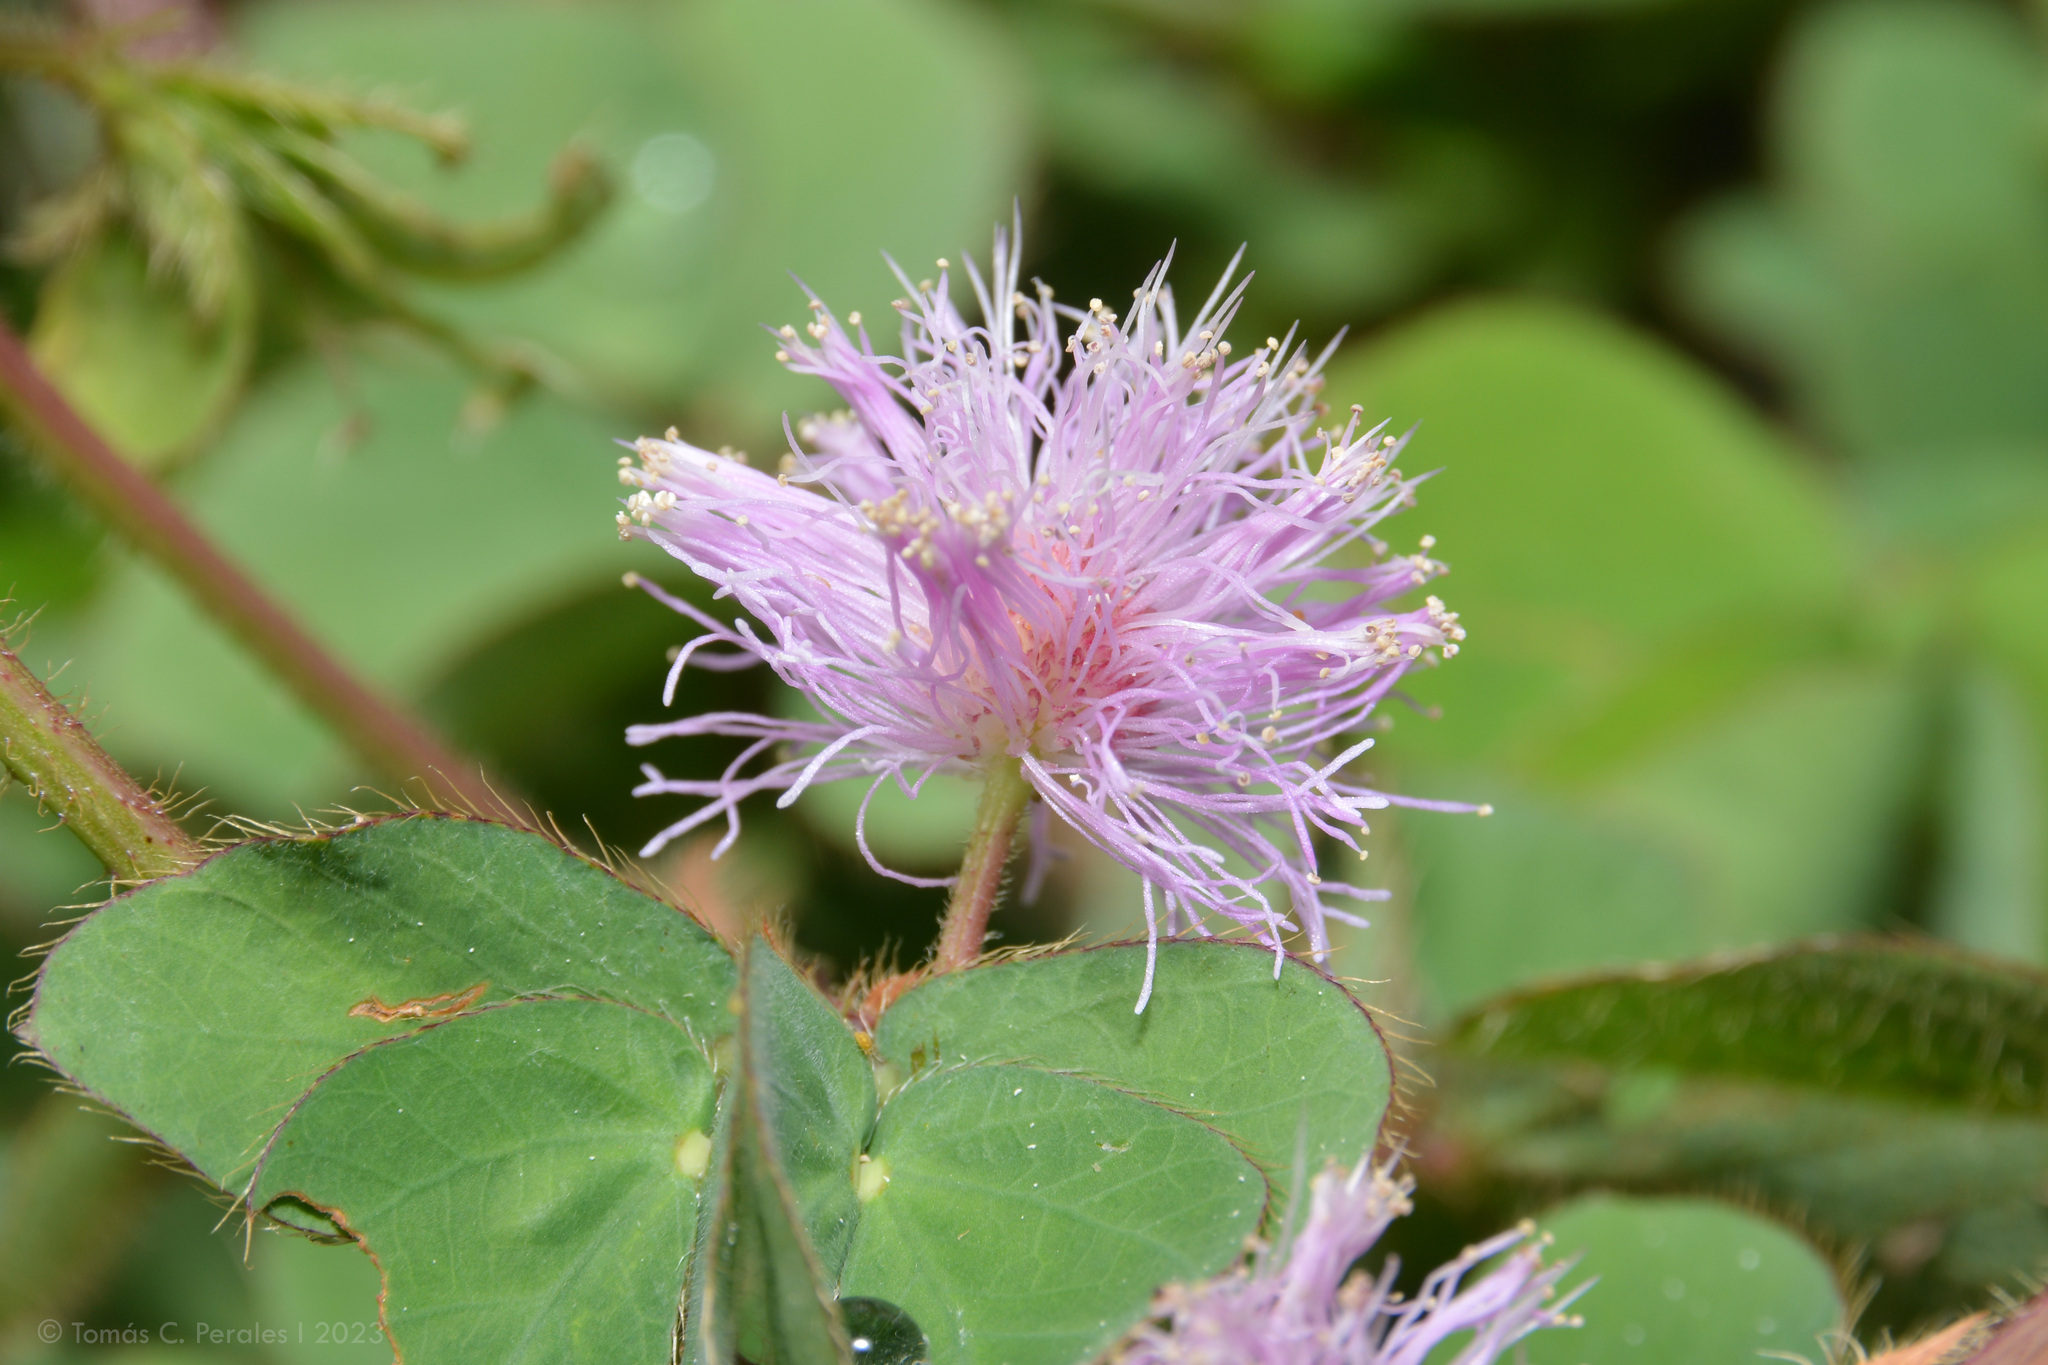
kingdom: Plantae
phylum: Tracheophyta
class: Magnoliopsida
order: Fabales
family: Fabaceae
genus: Mimosa
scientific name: Mimosa velloziana
